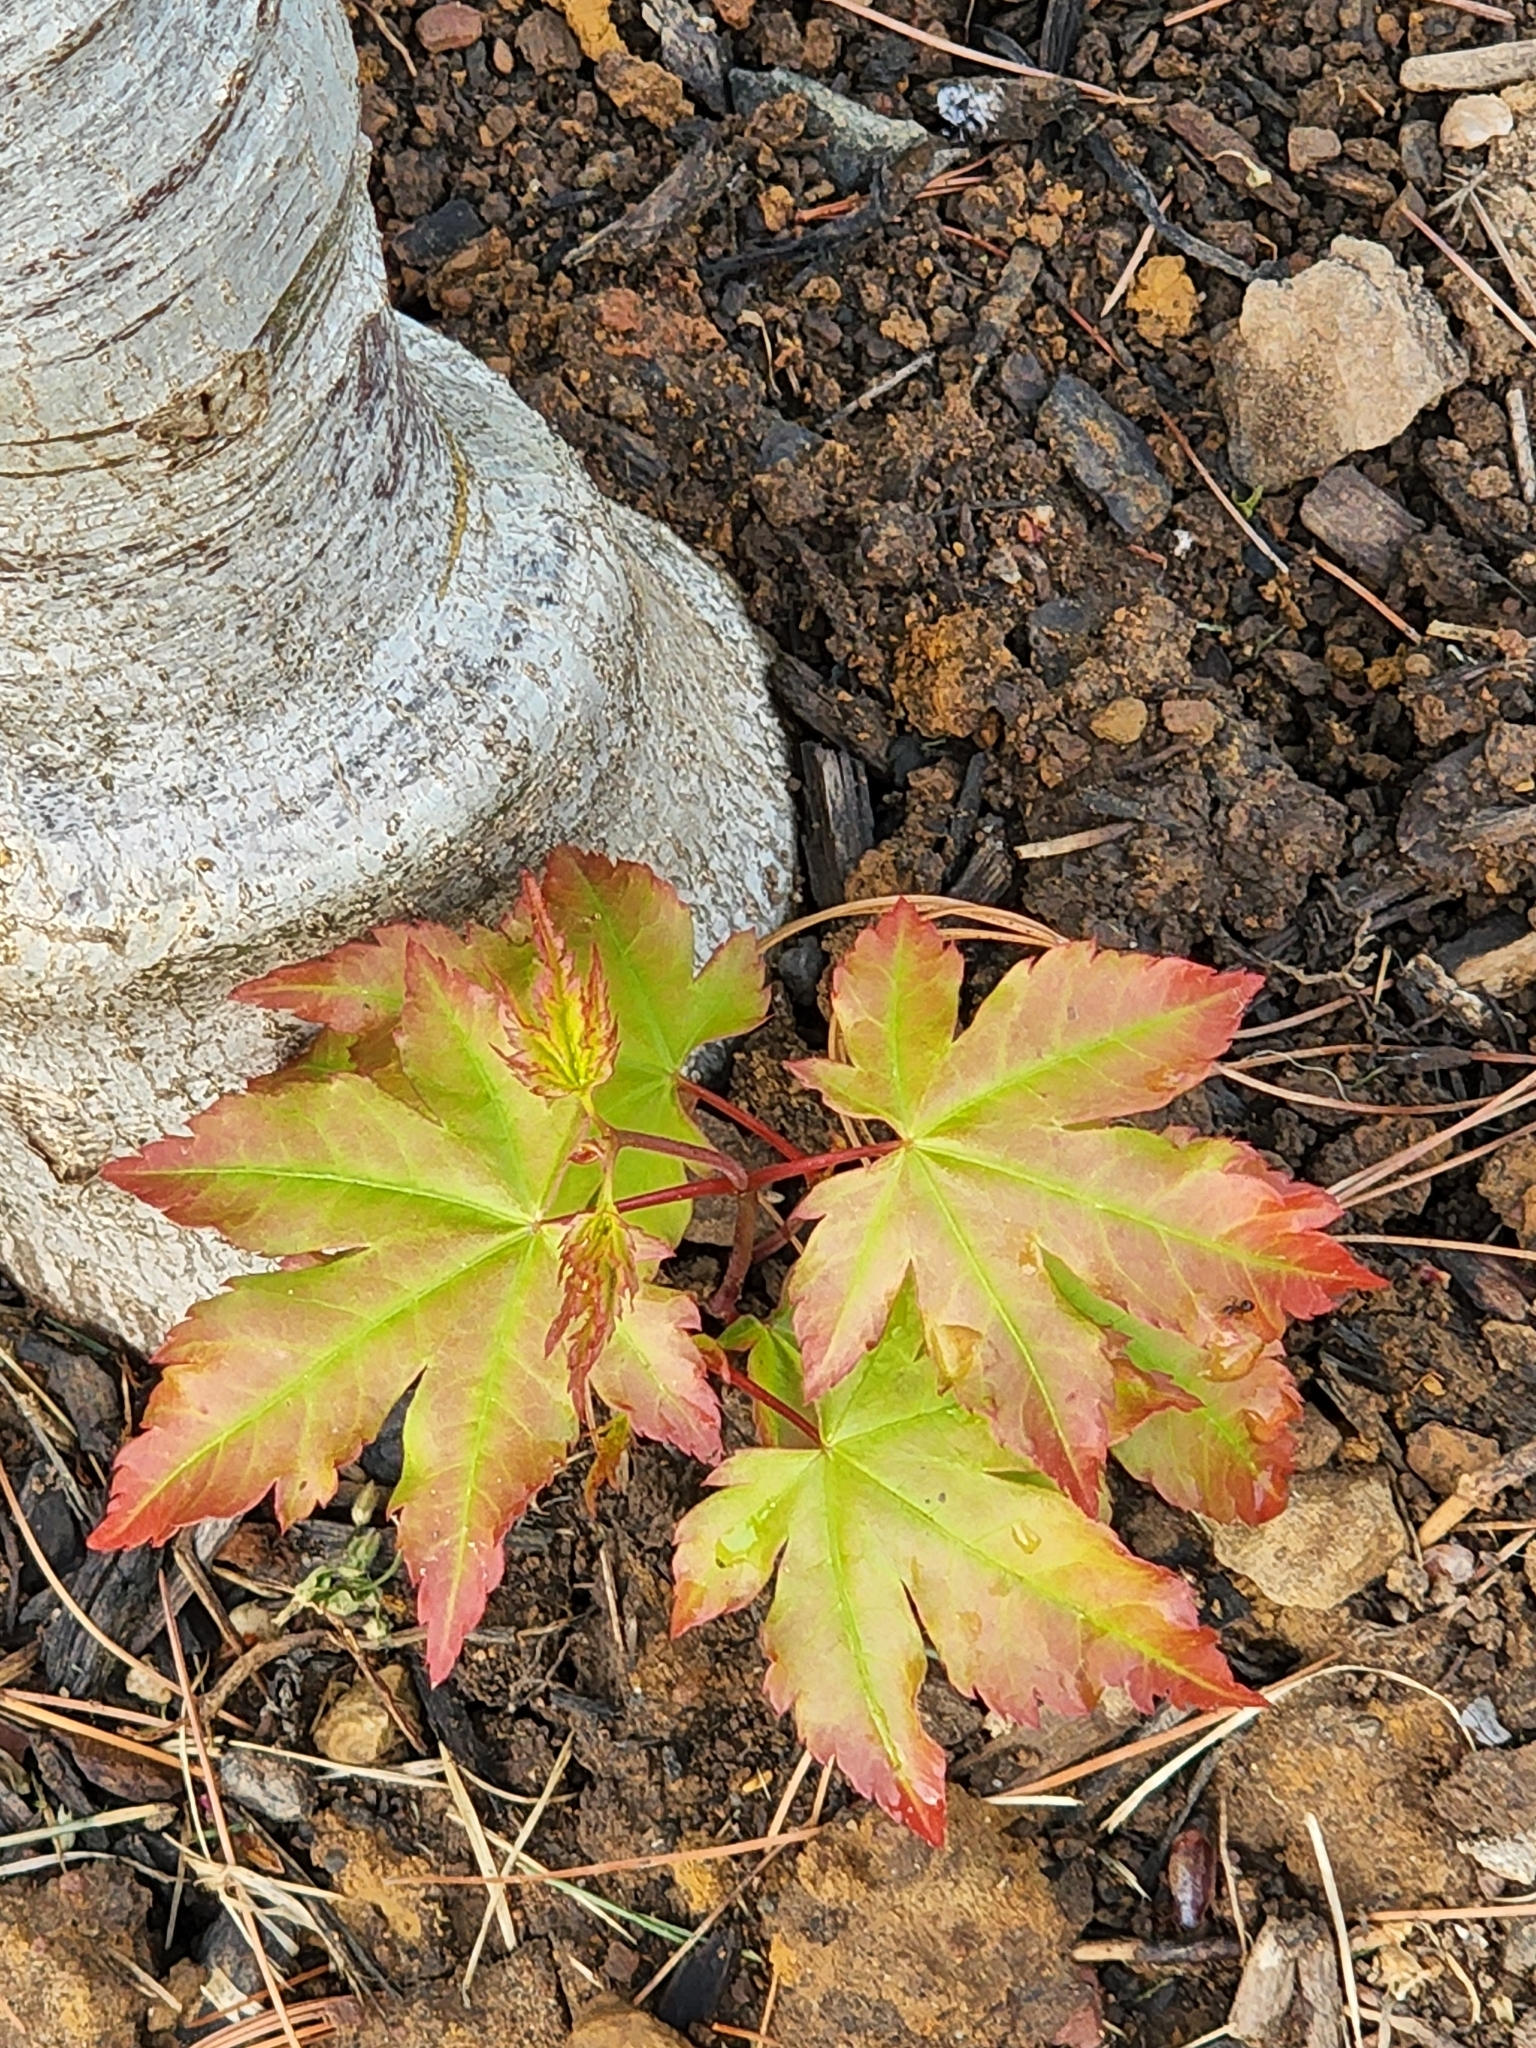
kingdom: Plantae
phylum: Tracheophyta
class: Magnoliopsida
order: Sapindales
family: Sapindaceae
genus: Acer
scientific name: Acer palmatum
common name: Japanese maple
